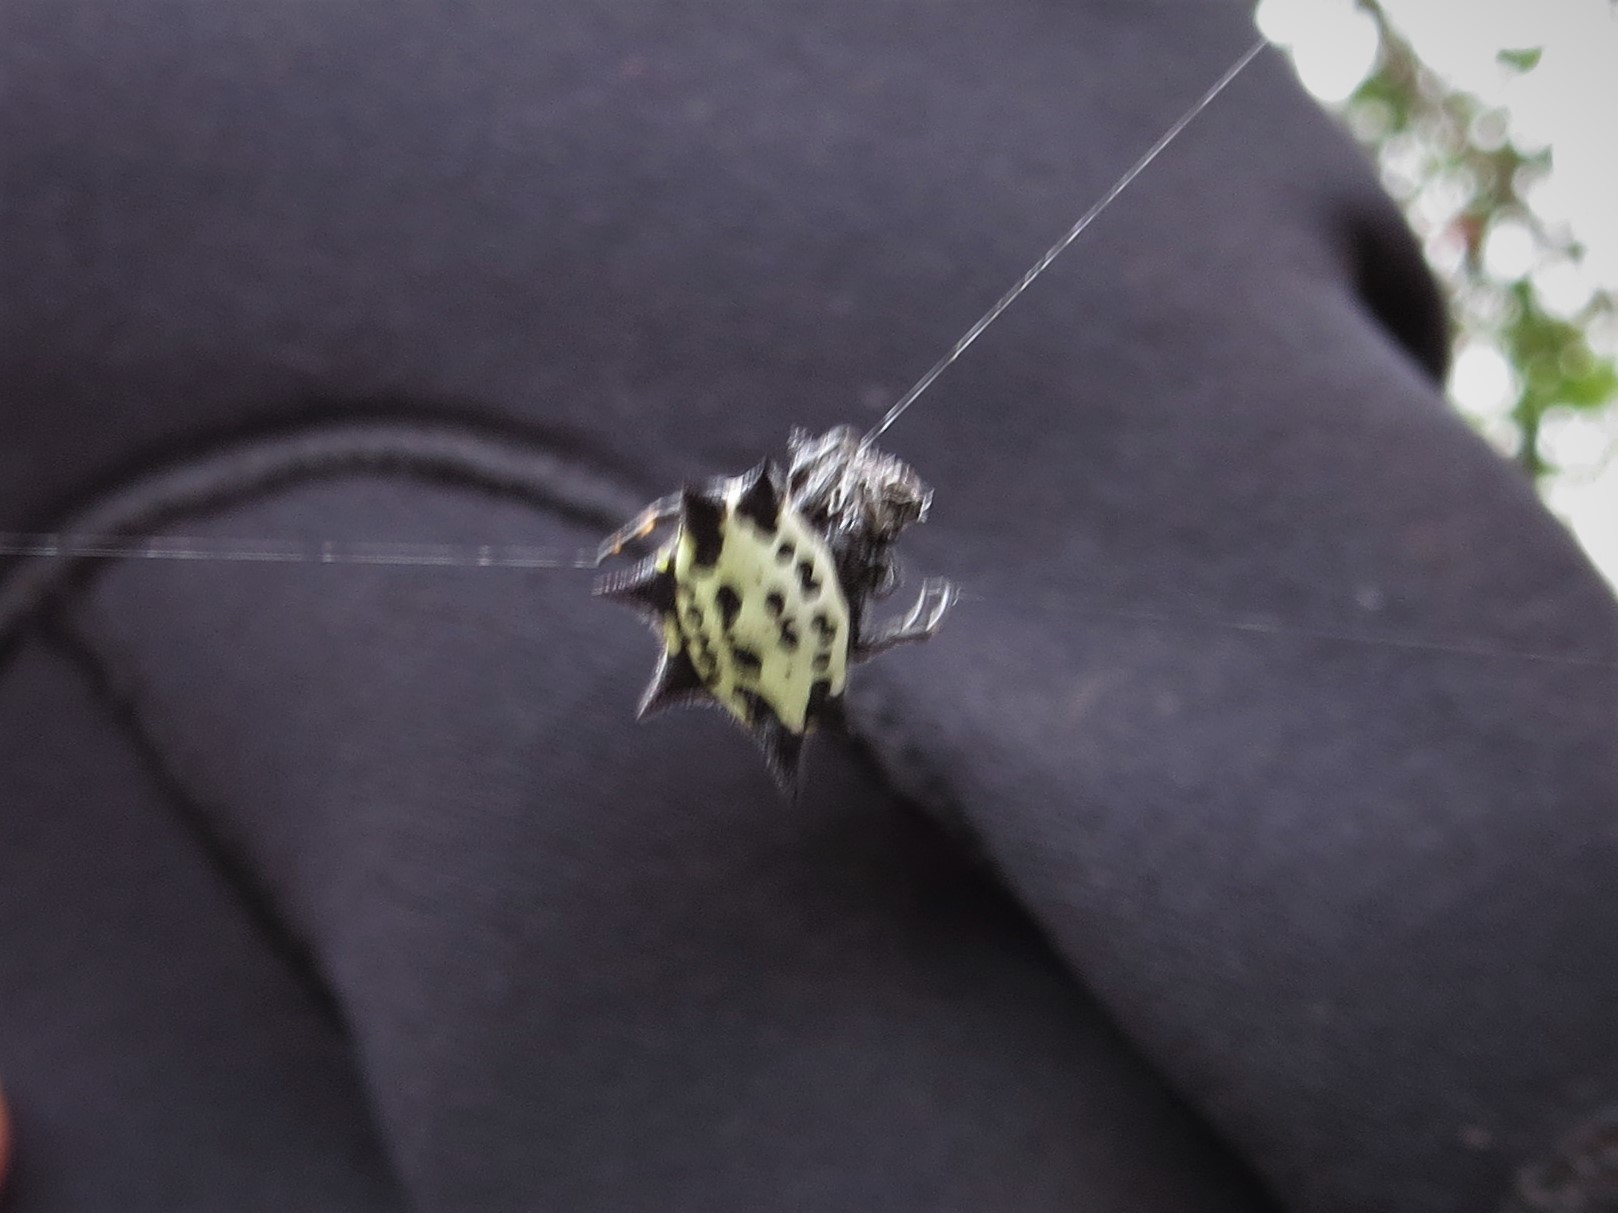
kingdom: Animalia
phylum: Arthropoda
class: Arachnida
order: Araneae
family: Araneidae
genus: Gasteracantha
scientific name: Gasteracantha cancriformis
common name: Orb weavers
